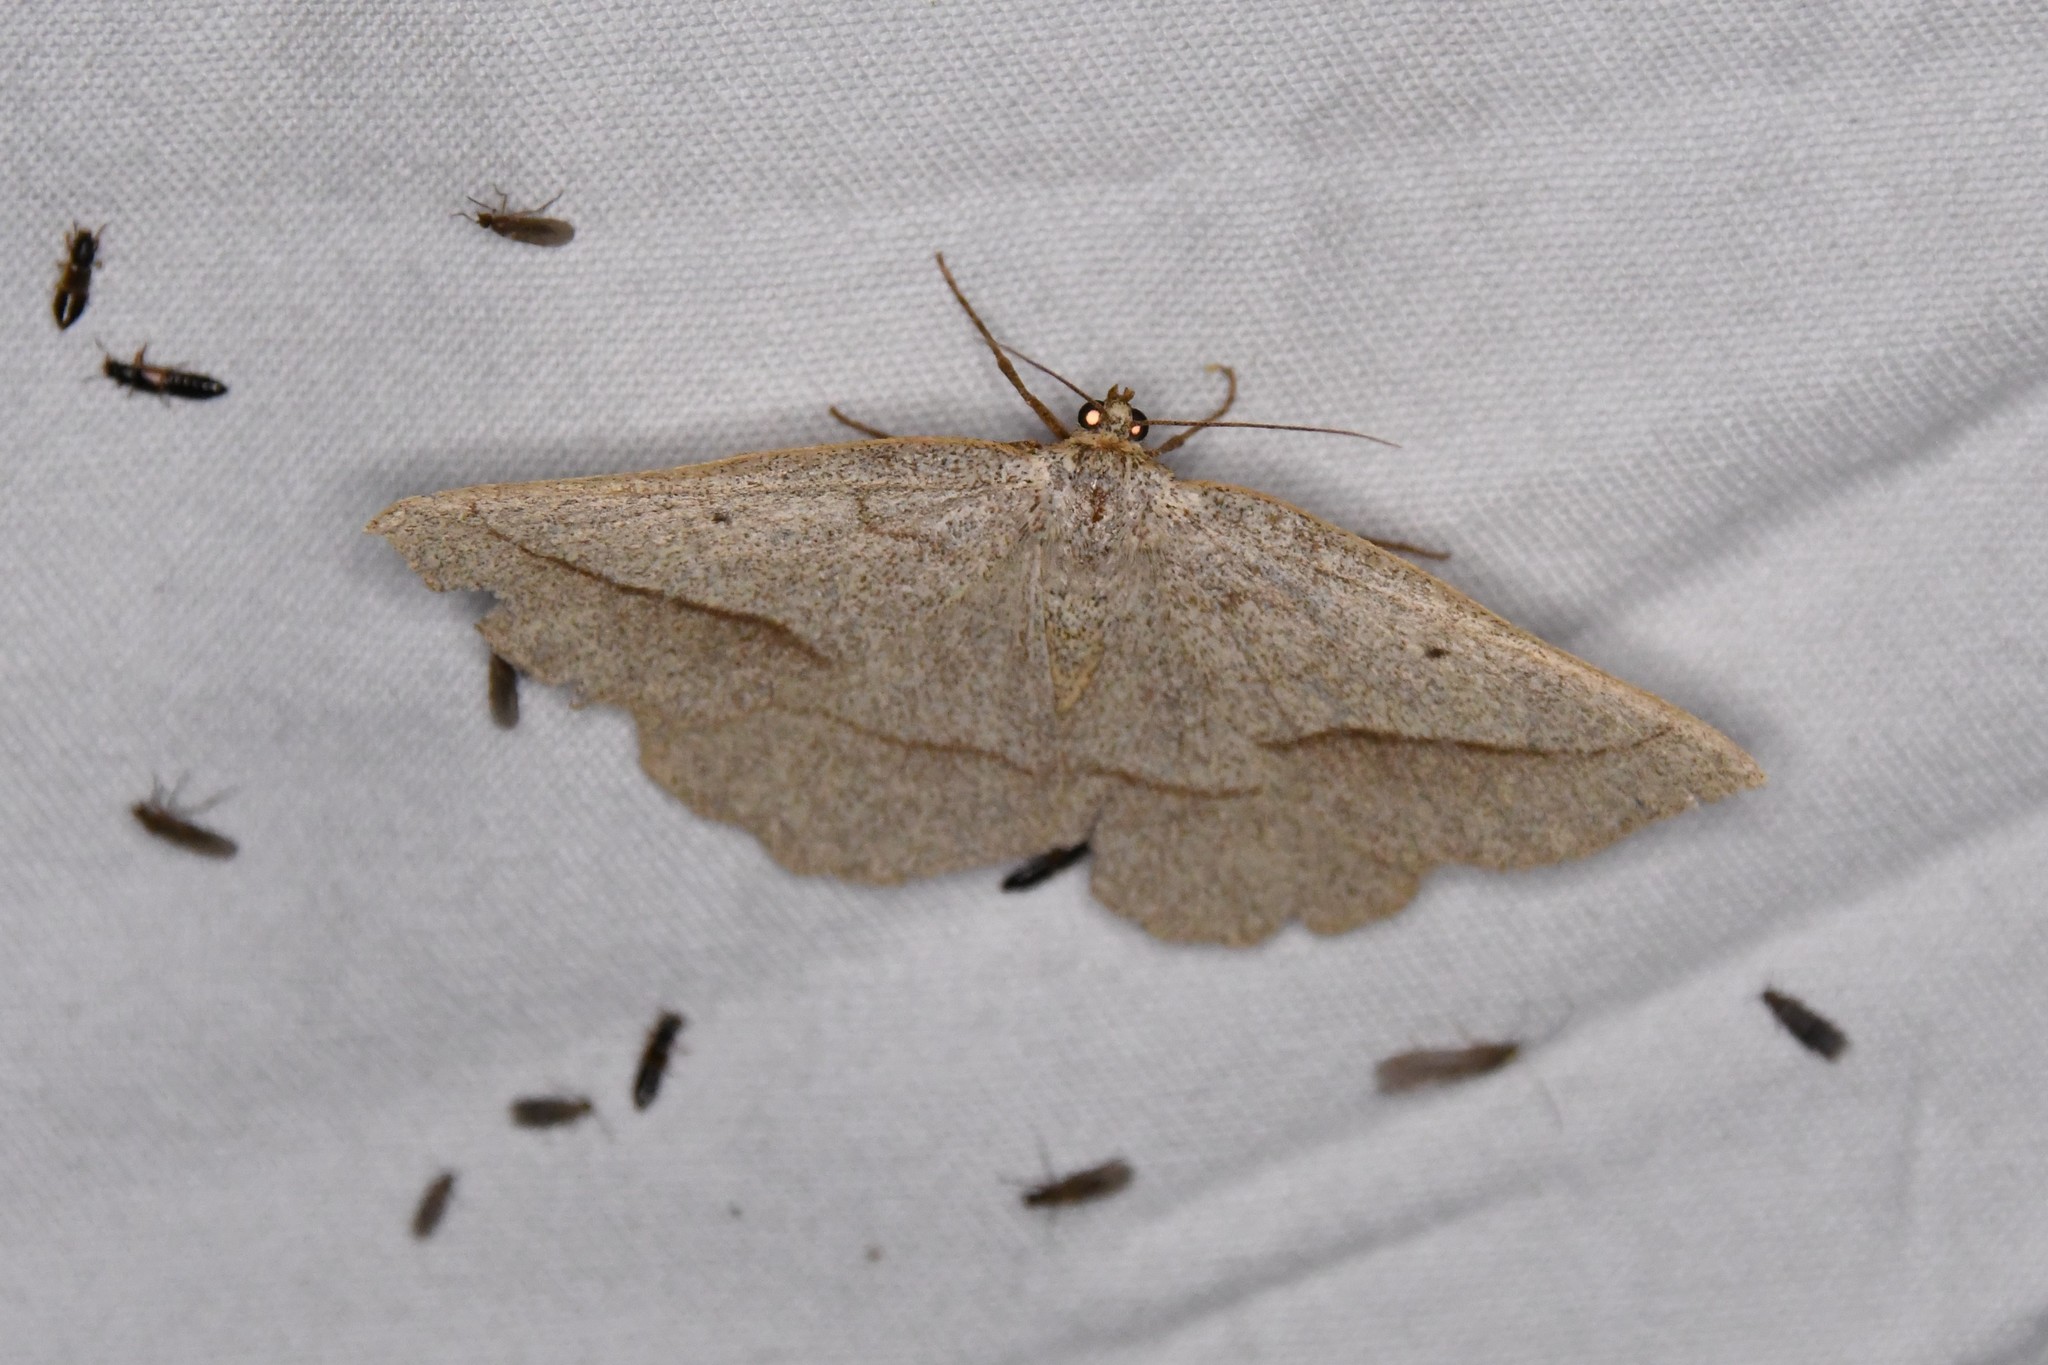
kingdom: Animalia
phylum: Arthropoda
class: Insecta
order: Lepidoptera
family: Geometridae
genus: Euchlaena
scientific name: Euchlaena irraria
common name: Least-marked euchlaena
